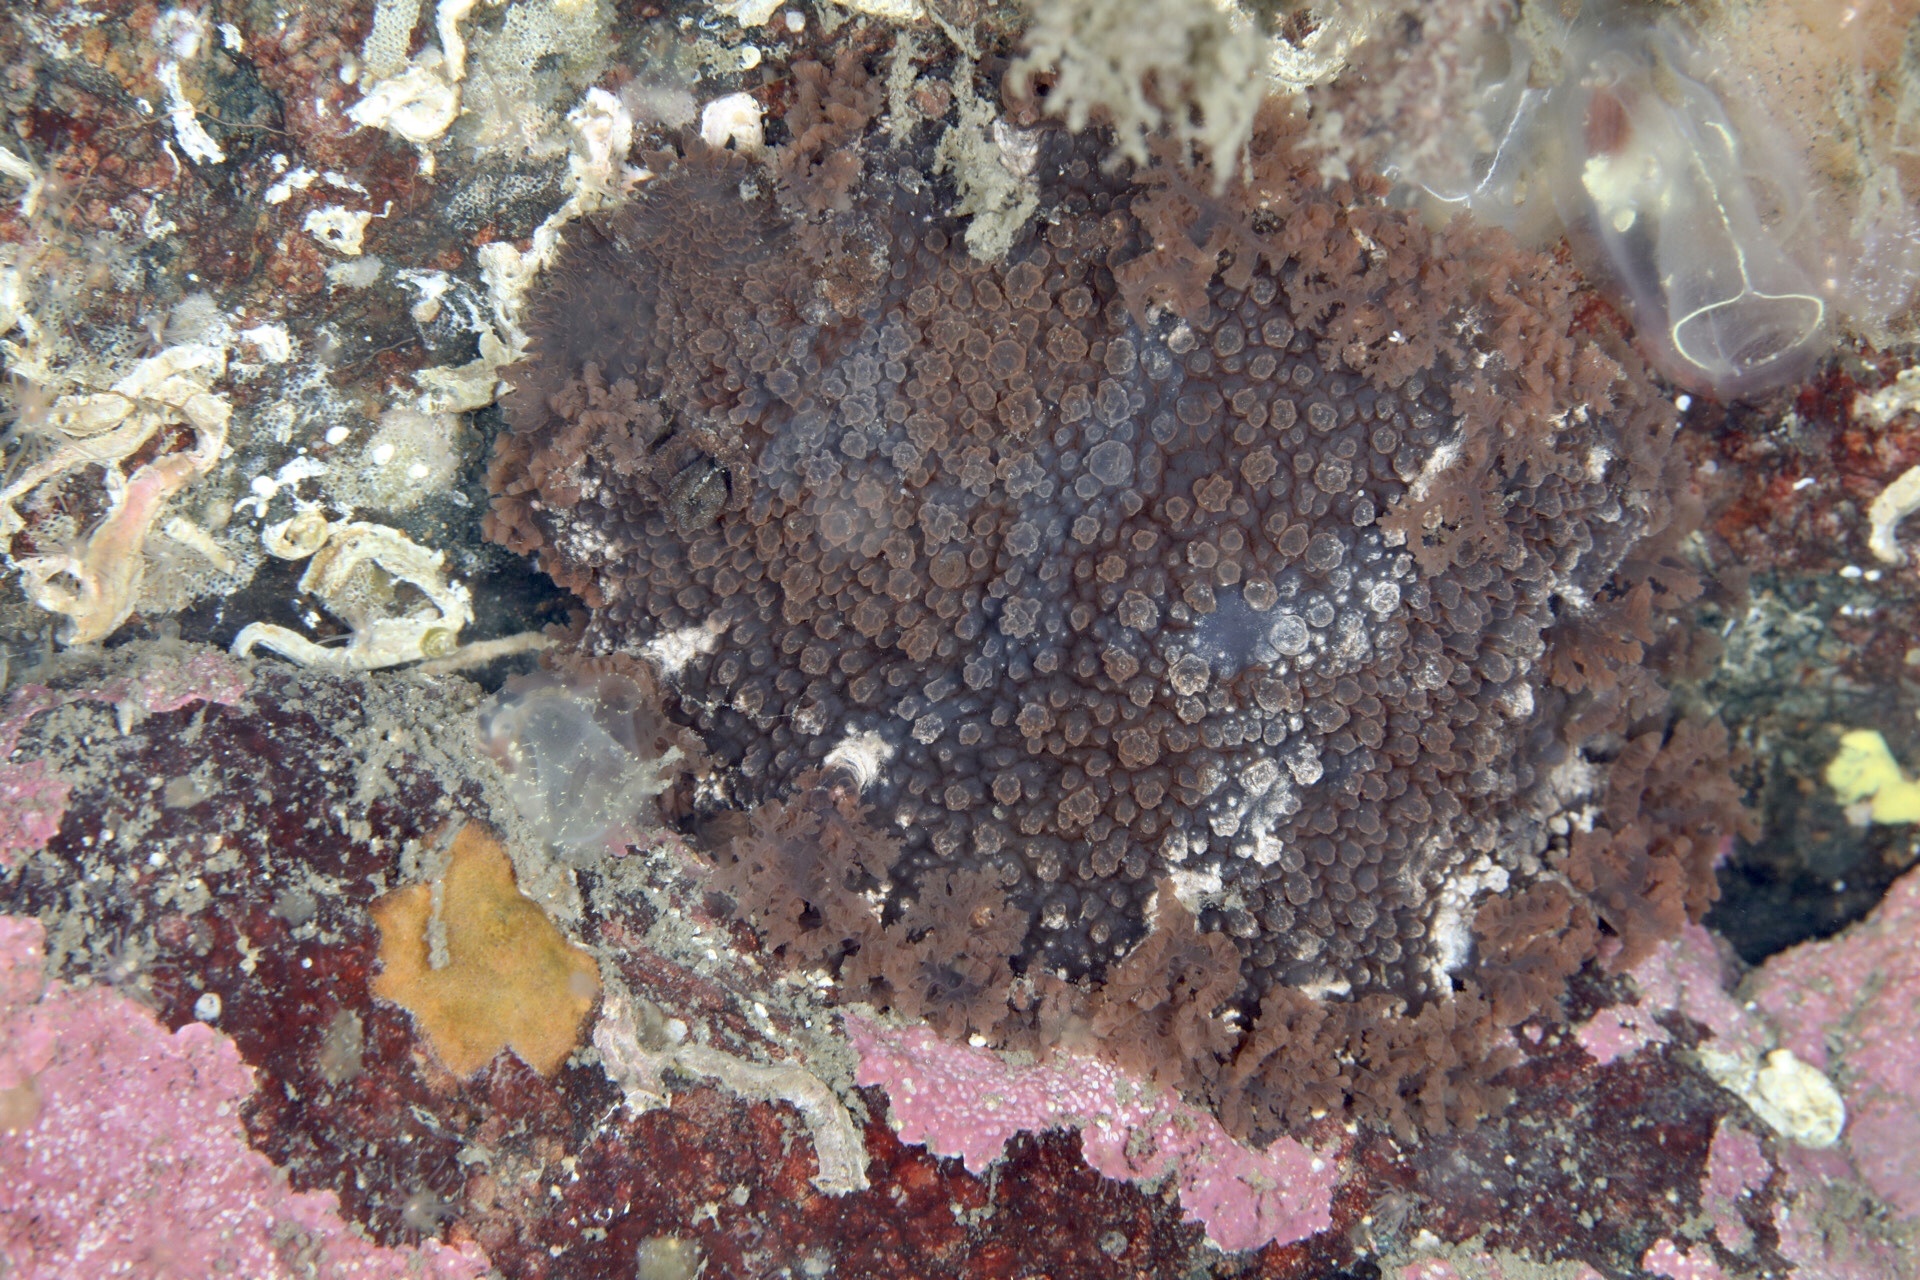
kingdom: Animalia
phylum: Mollusca
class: Gastropoda
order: Nudibranchia
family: Tritoniidae
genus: Tritonia
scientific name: Tritonia hombergii
